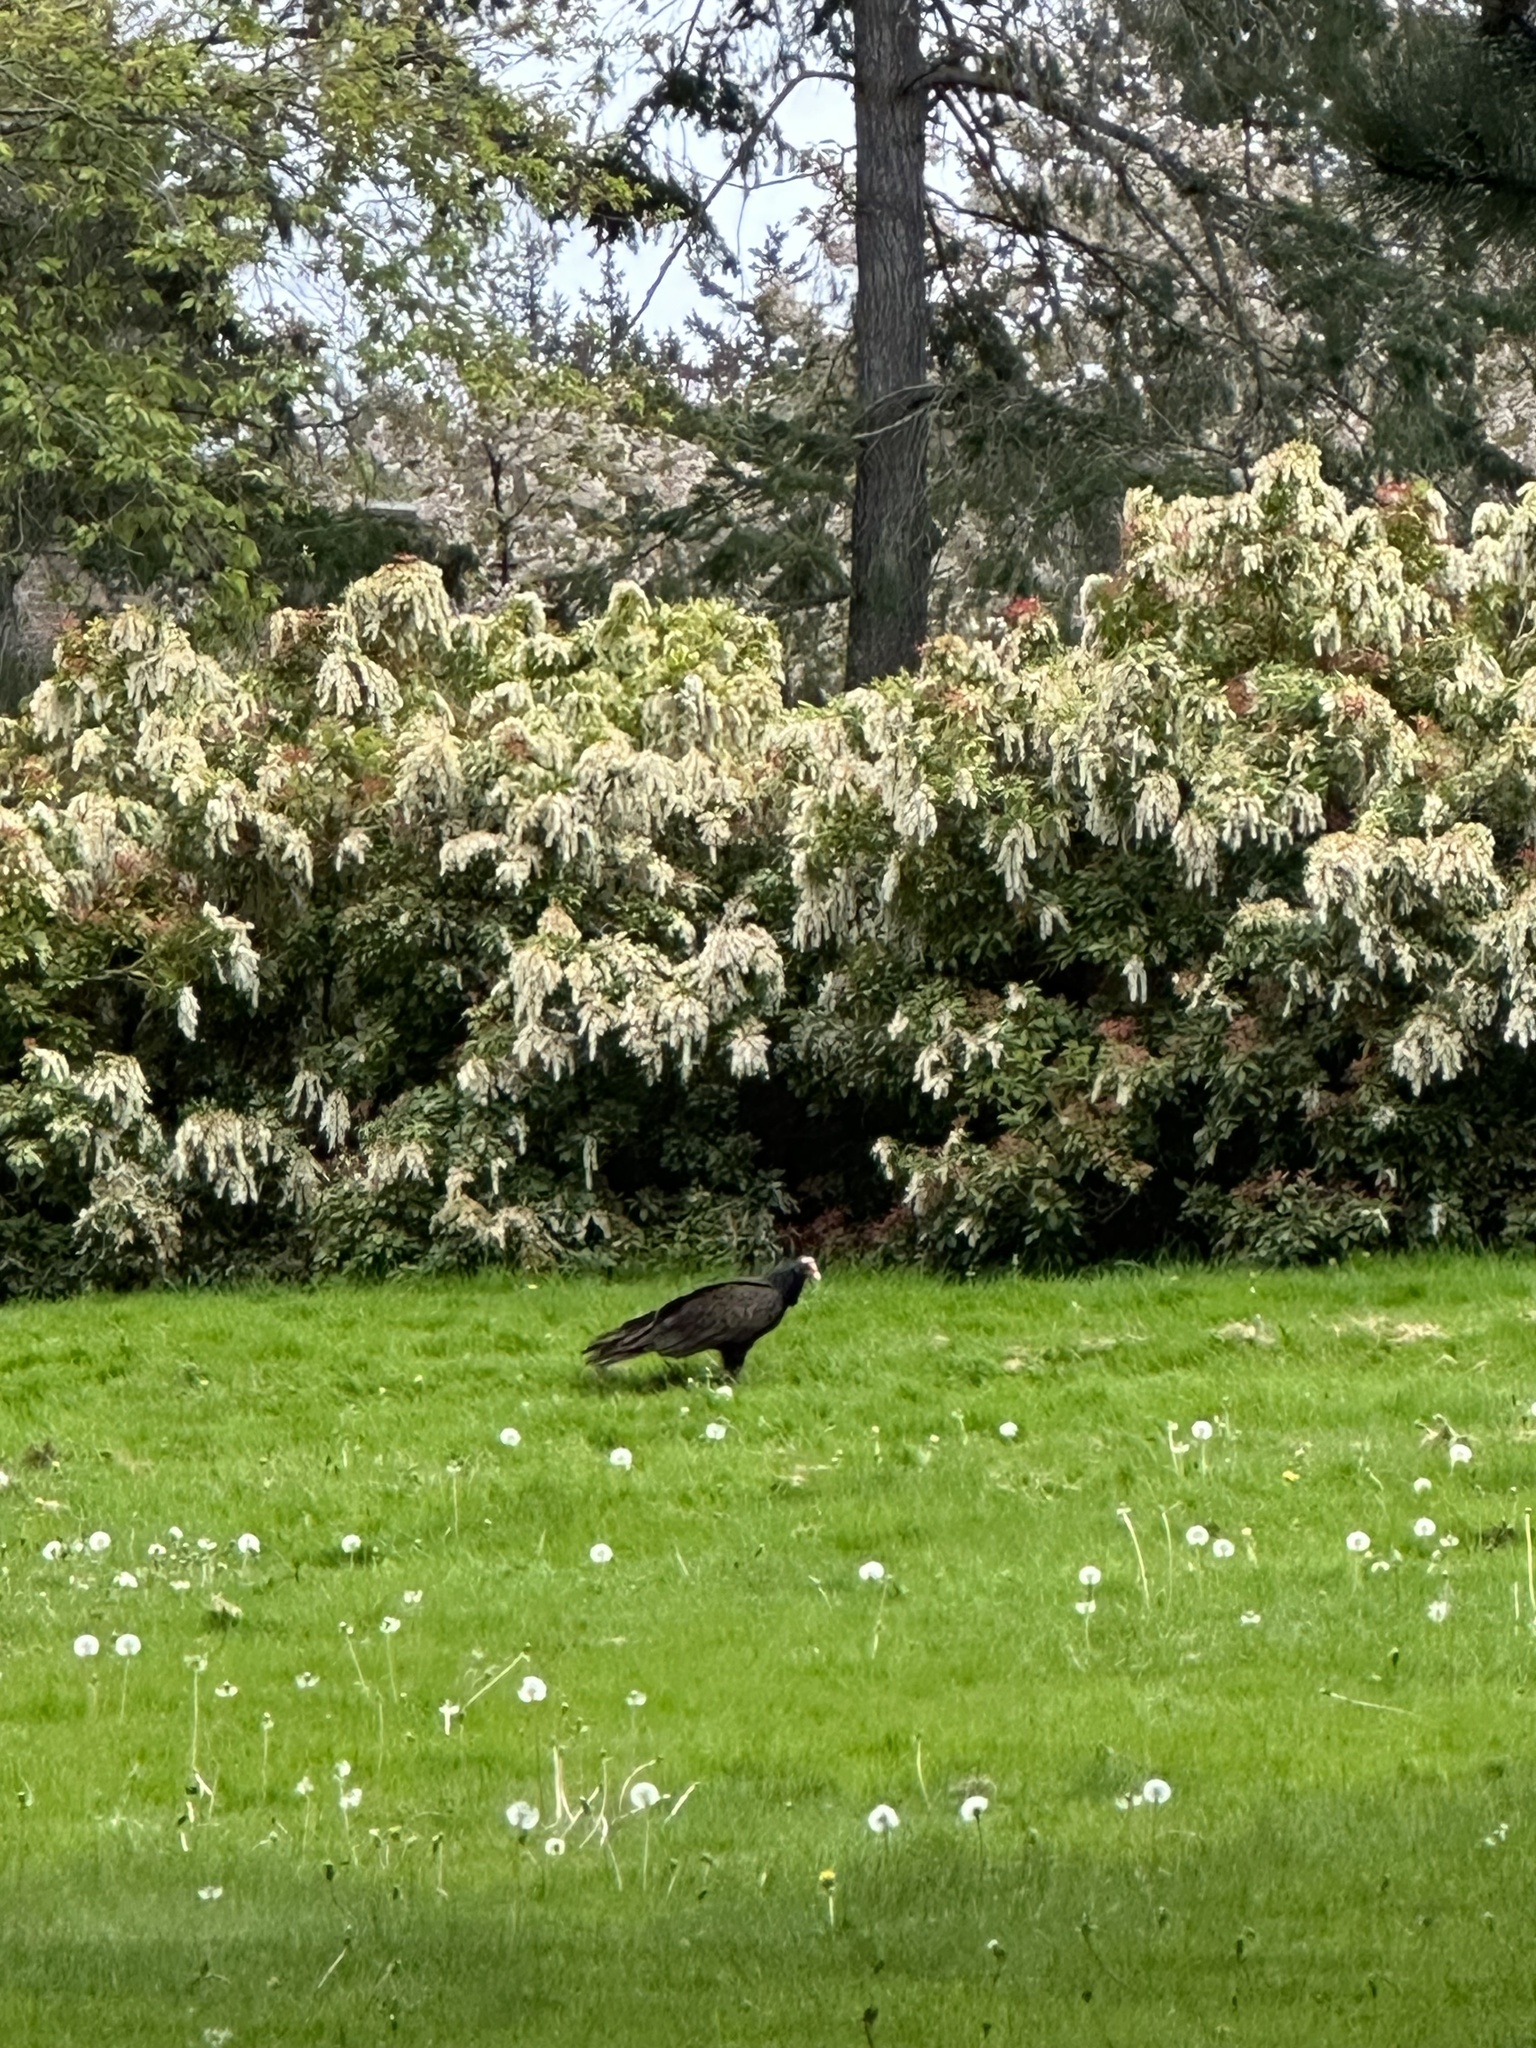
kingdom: Animalia
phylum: Chordata
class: Aves
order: Accipitriformes
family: Cathartidae
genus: Cathartes
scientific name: Cathartes aura
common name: Turkey vulture
